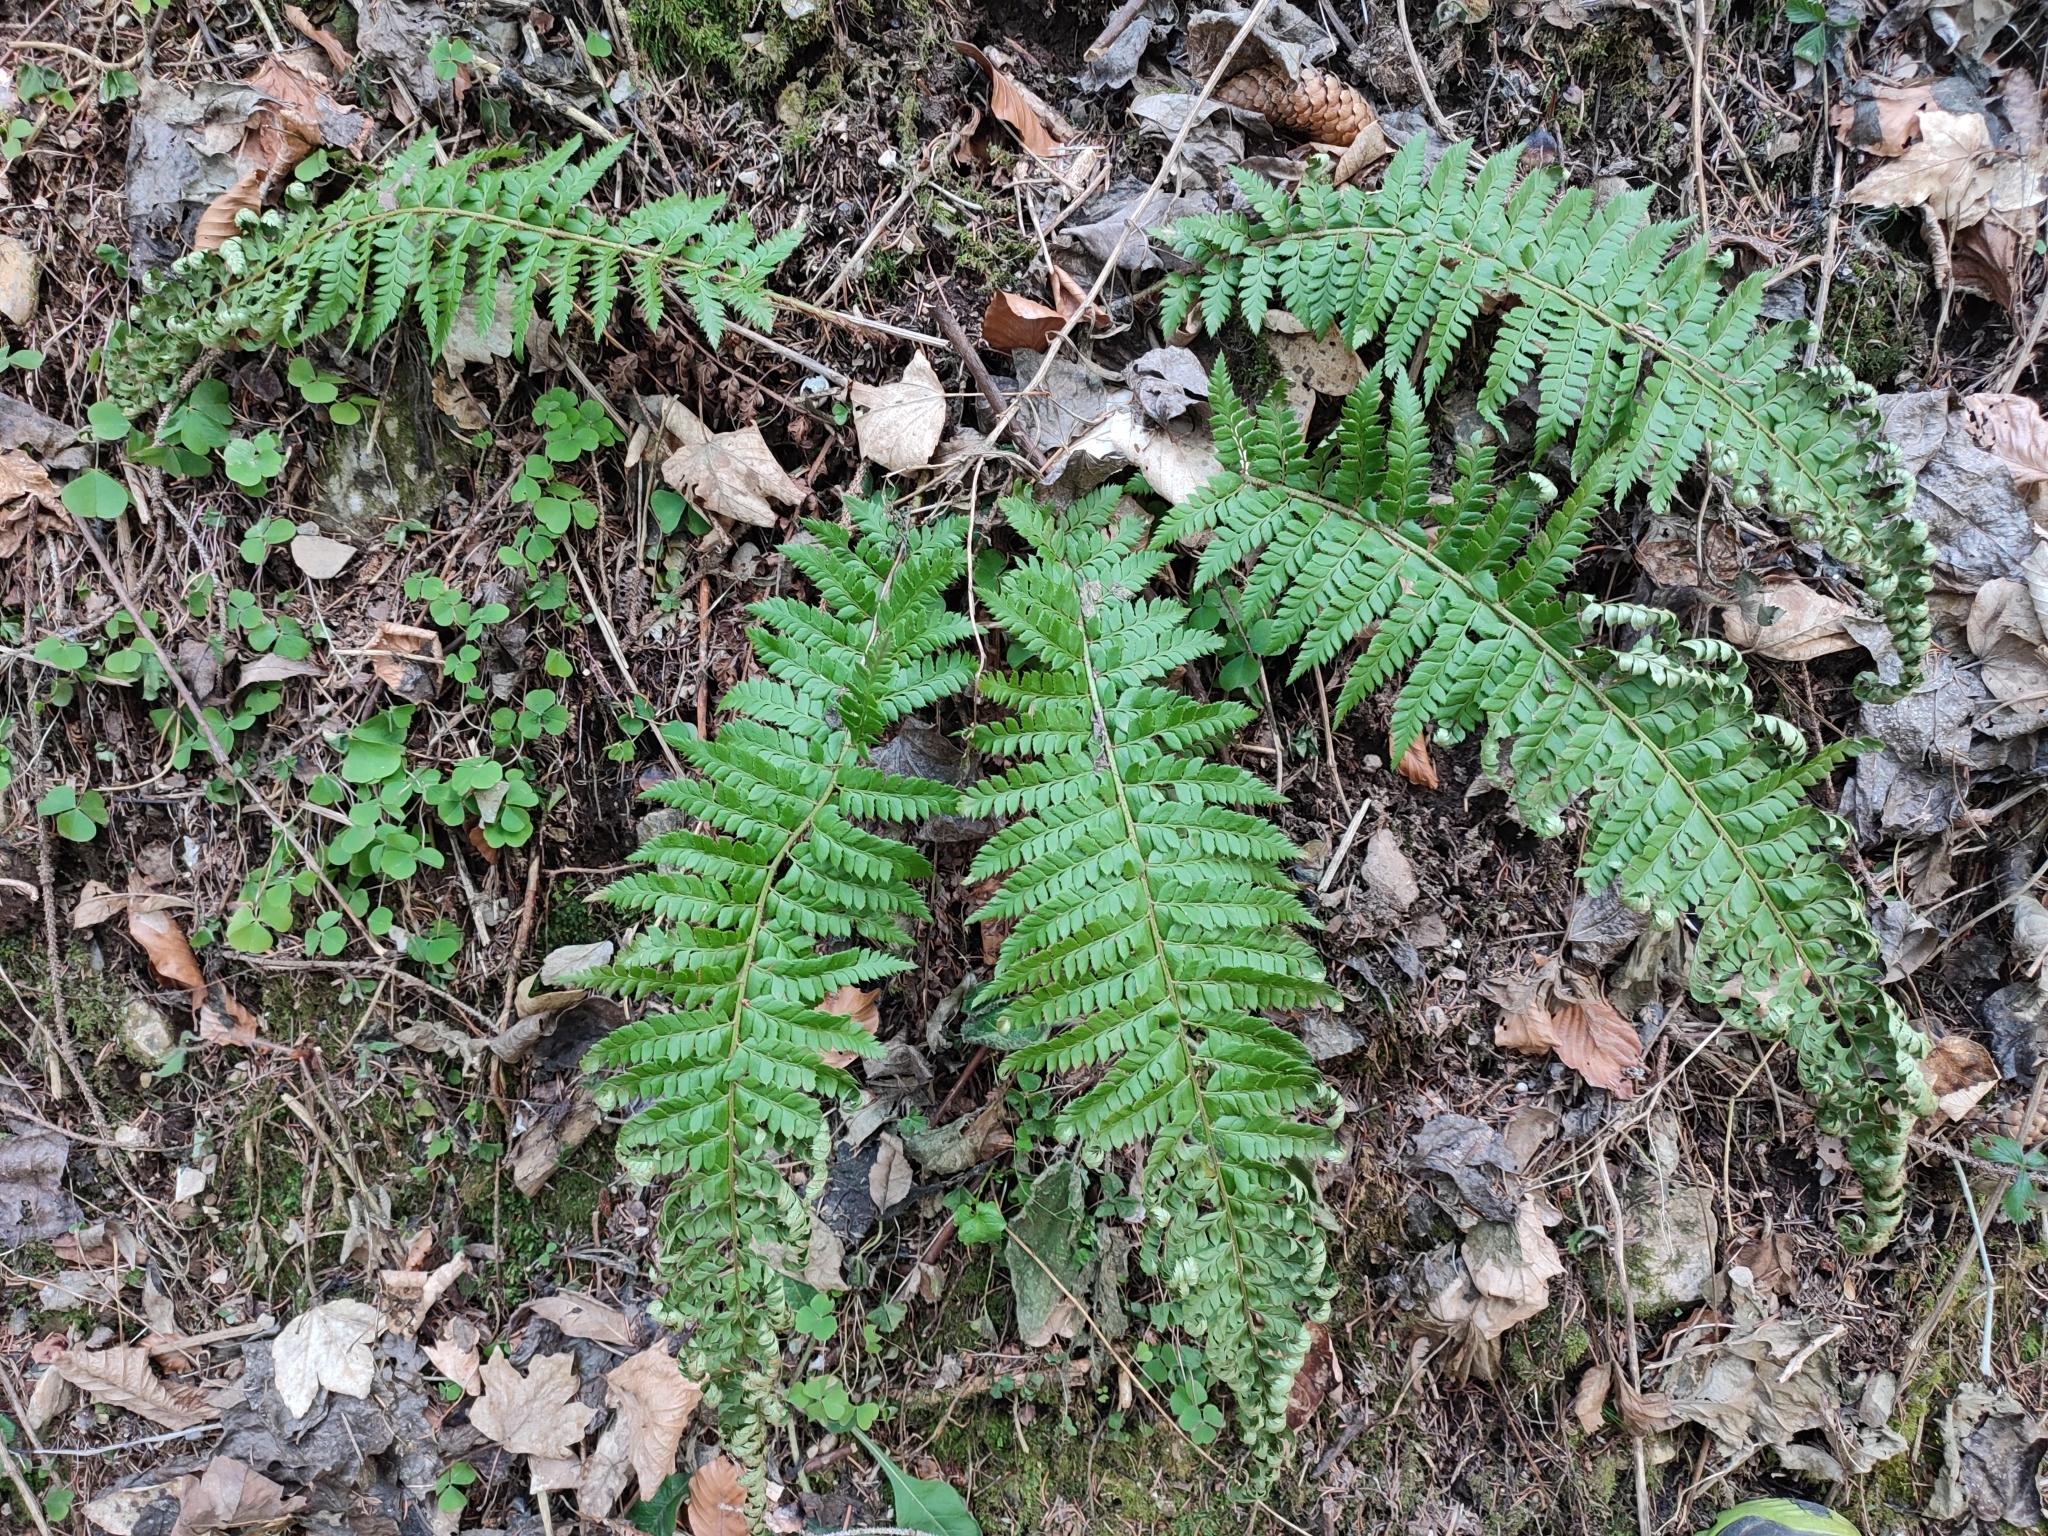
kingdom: Plantae
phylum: Tracheophyta
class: Polypodiopsida
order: Polypodiales
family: Dryopteridaceae
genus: Polystichum
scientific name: Polystichum aculeatum
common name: Hard shield-fern
